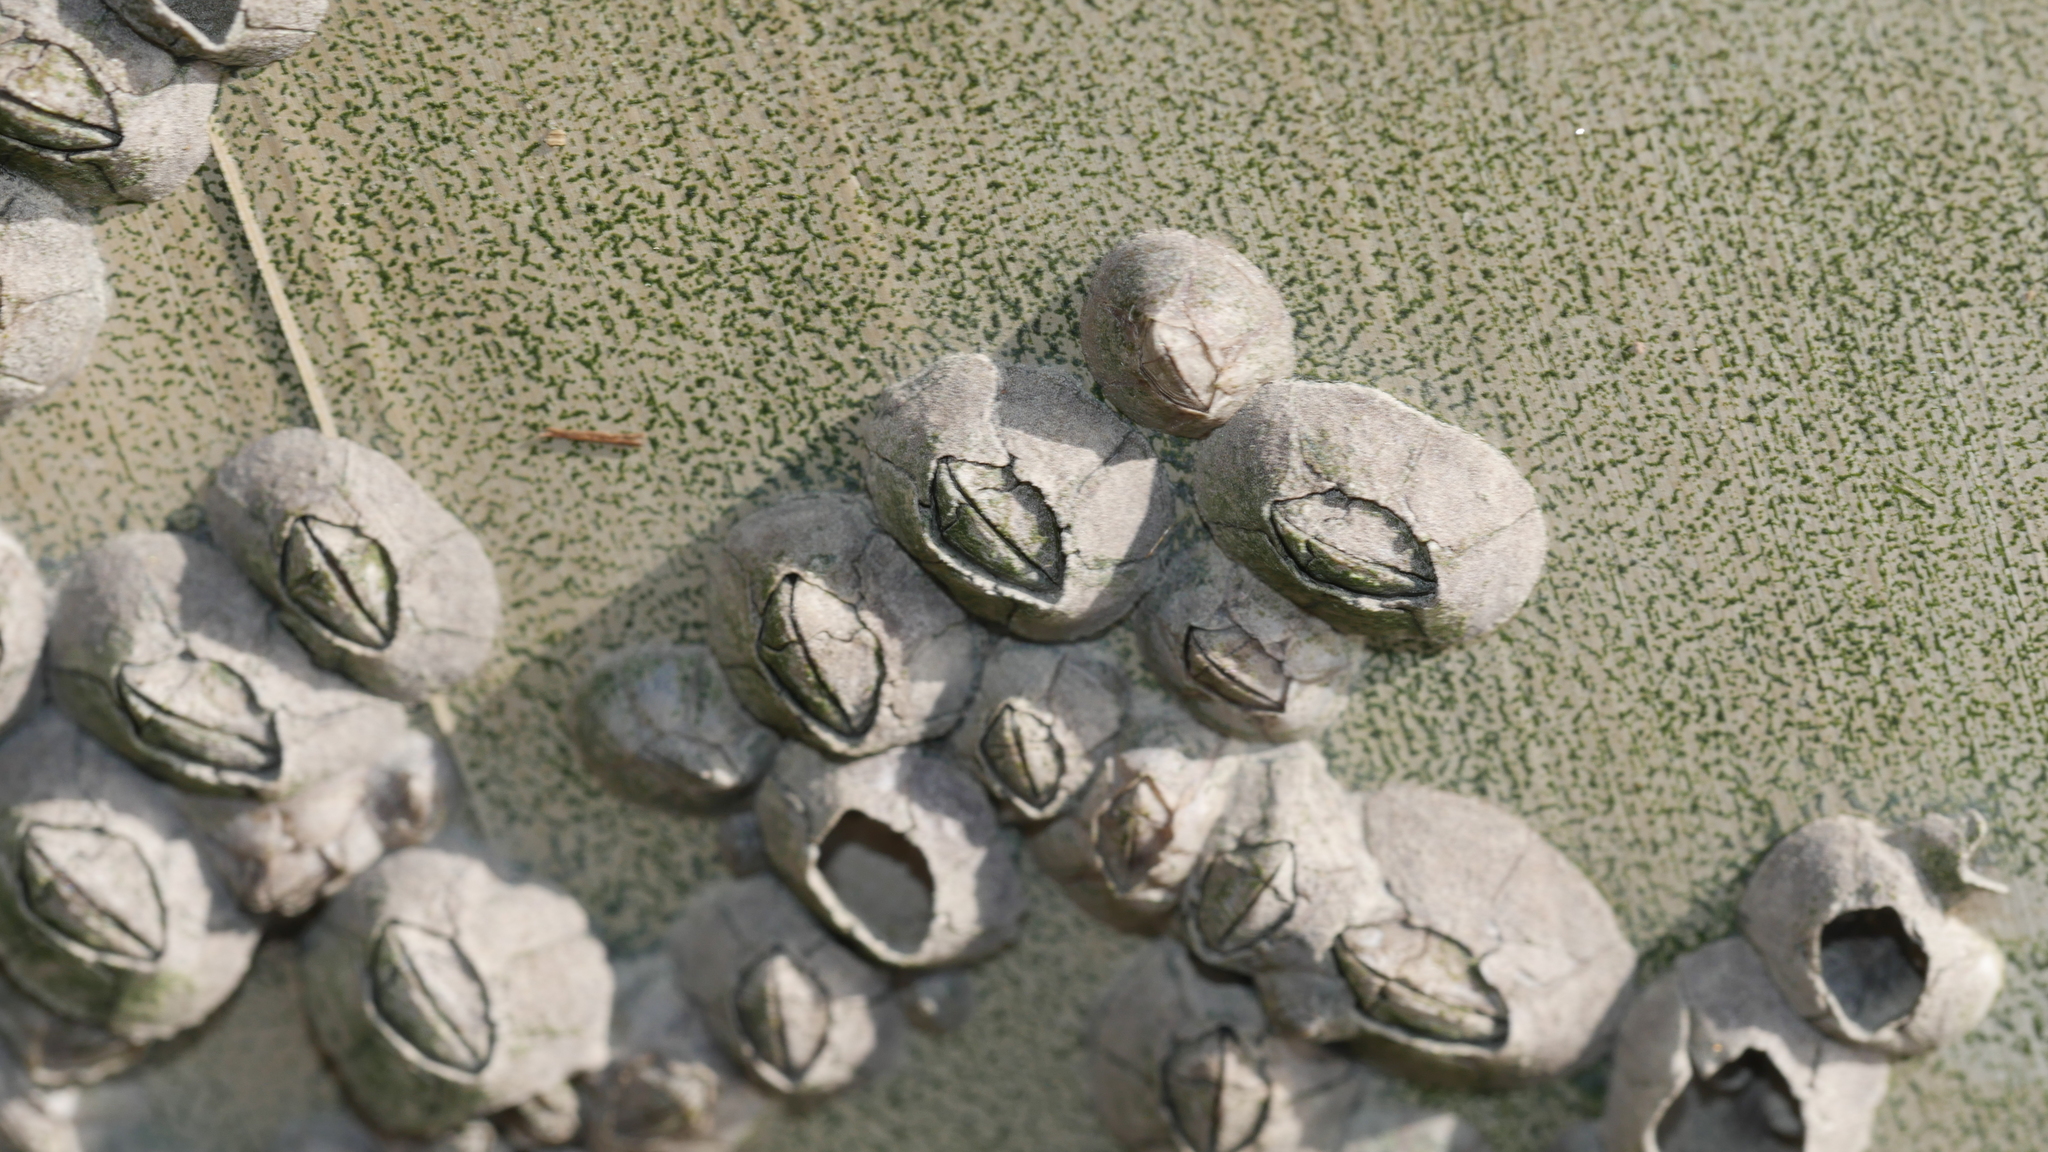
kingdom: Animalia
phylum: Arthropoda
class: Maxillopoda
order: Sessilia
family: Chthamalidae
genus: Chthamalus
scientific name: Chthamalus fragilis
